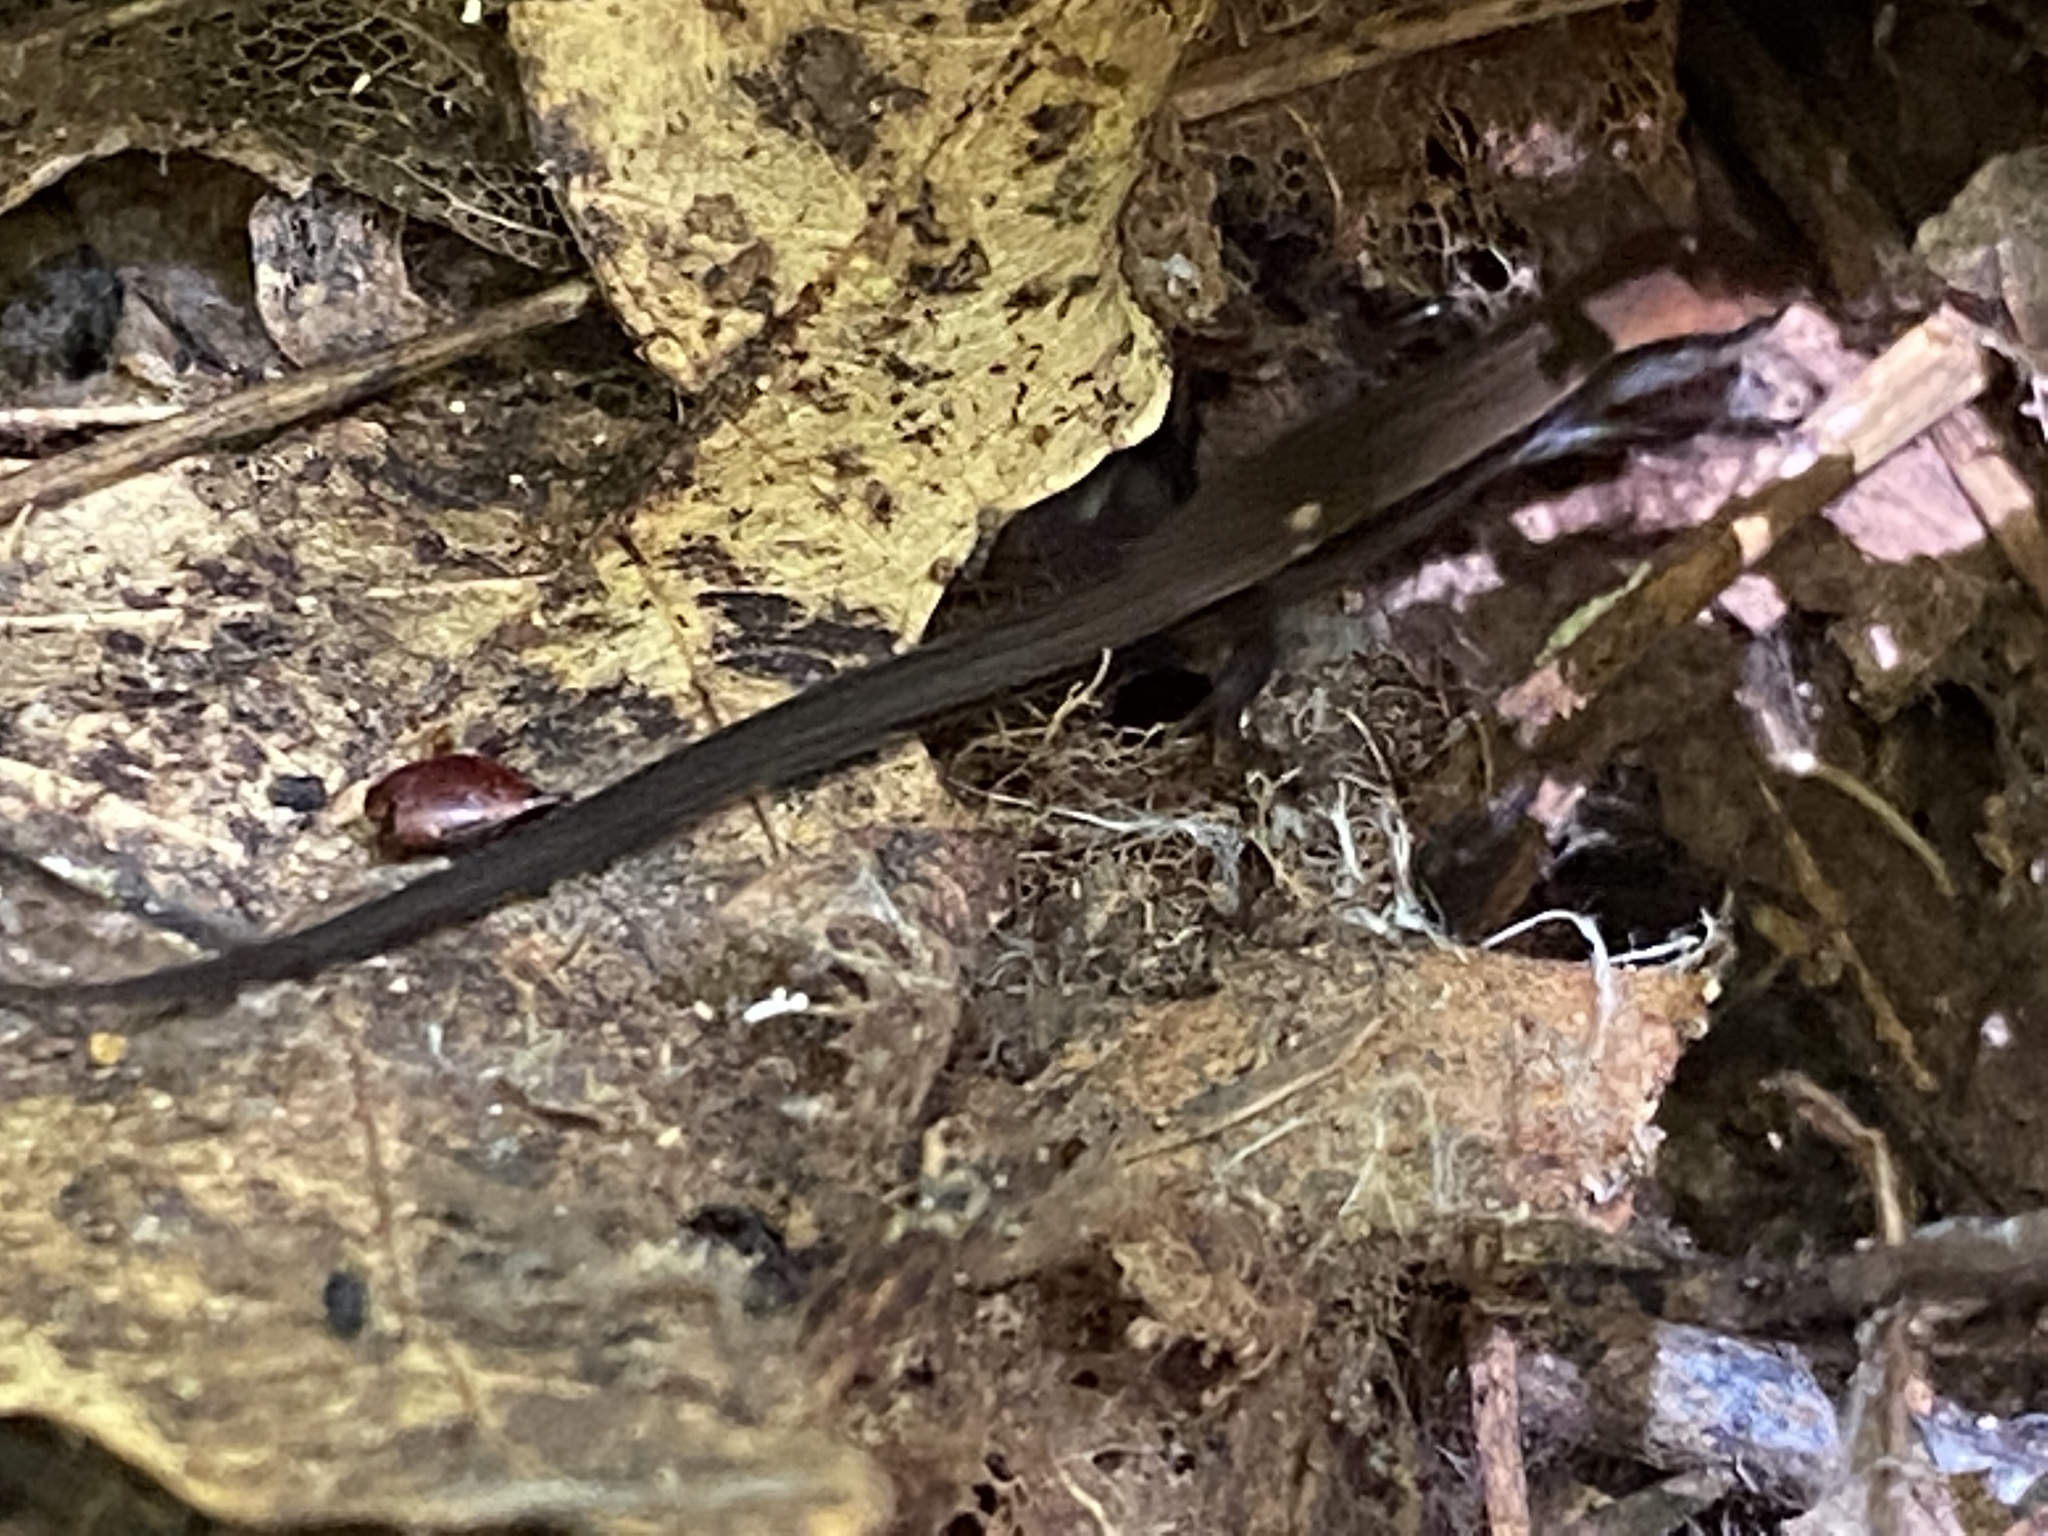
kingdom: Animalia
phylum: Chordata
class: Squamata
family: Scincidae
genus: Scincella
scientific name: Scincella lateralis
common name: Ground skink
